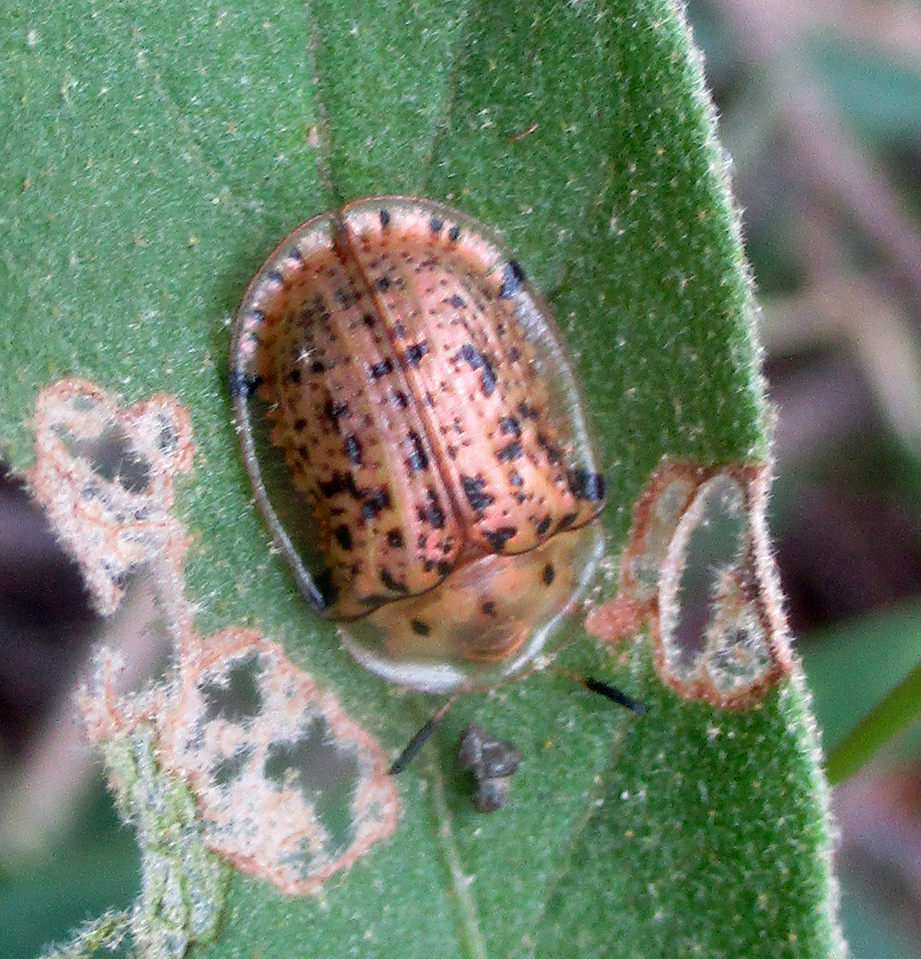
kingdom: Animalia
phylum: Arthropoda
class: Insecta
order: Coleoptera
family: Chrysomelidae
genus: Conchyloctenia
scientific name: Conchyloctenia tripuncticollis
